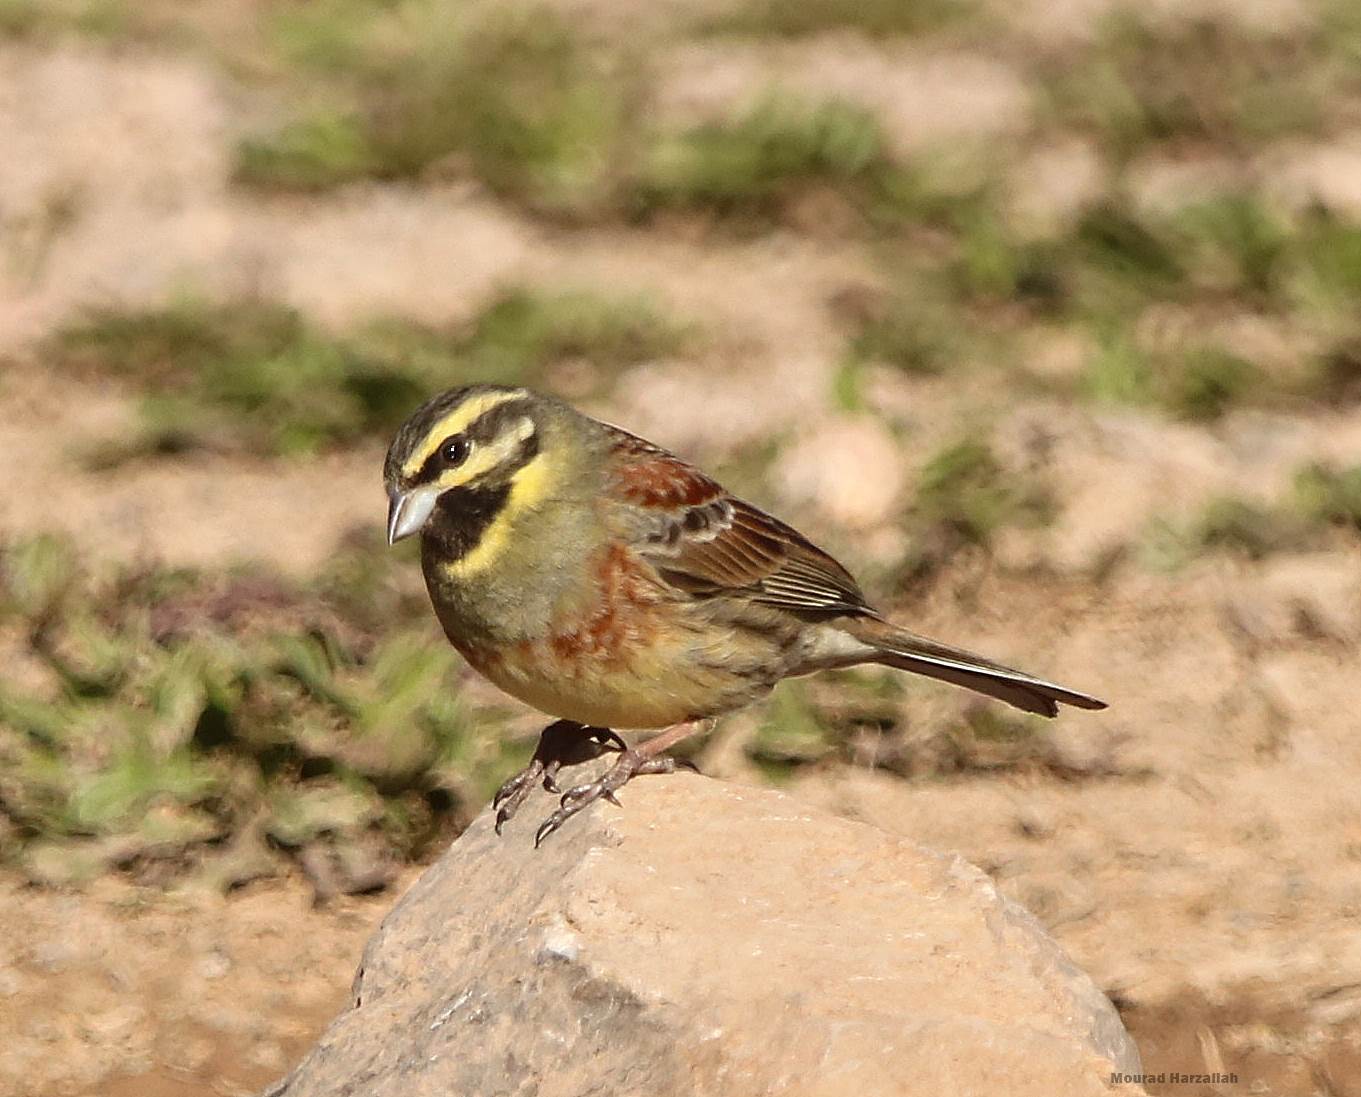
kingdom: Animalia
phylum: Chordata
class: Aves
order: Passeriformes
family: Emberizidae
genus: Emberiza
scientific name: Emberiza cirlus
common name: Cirl bunting
